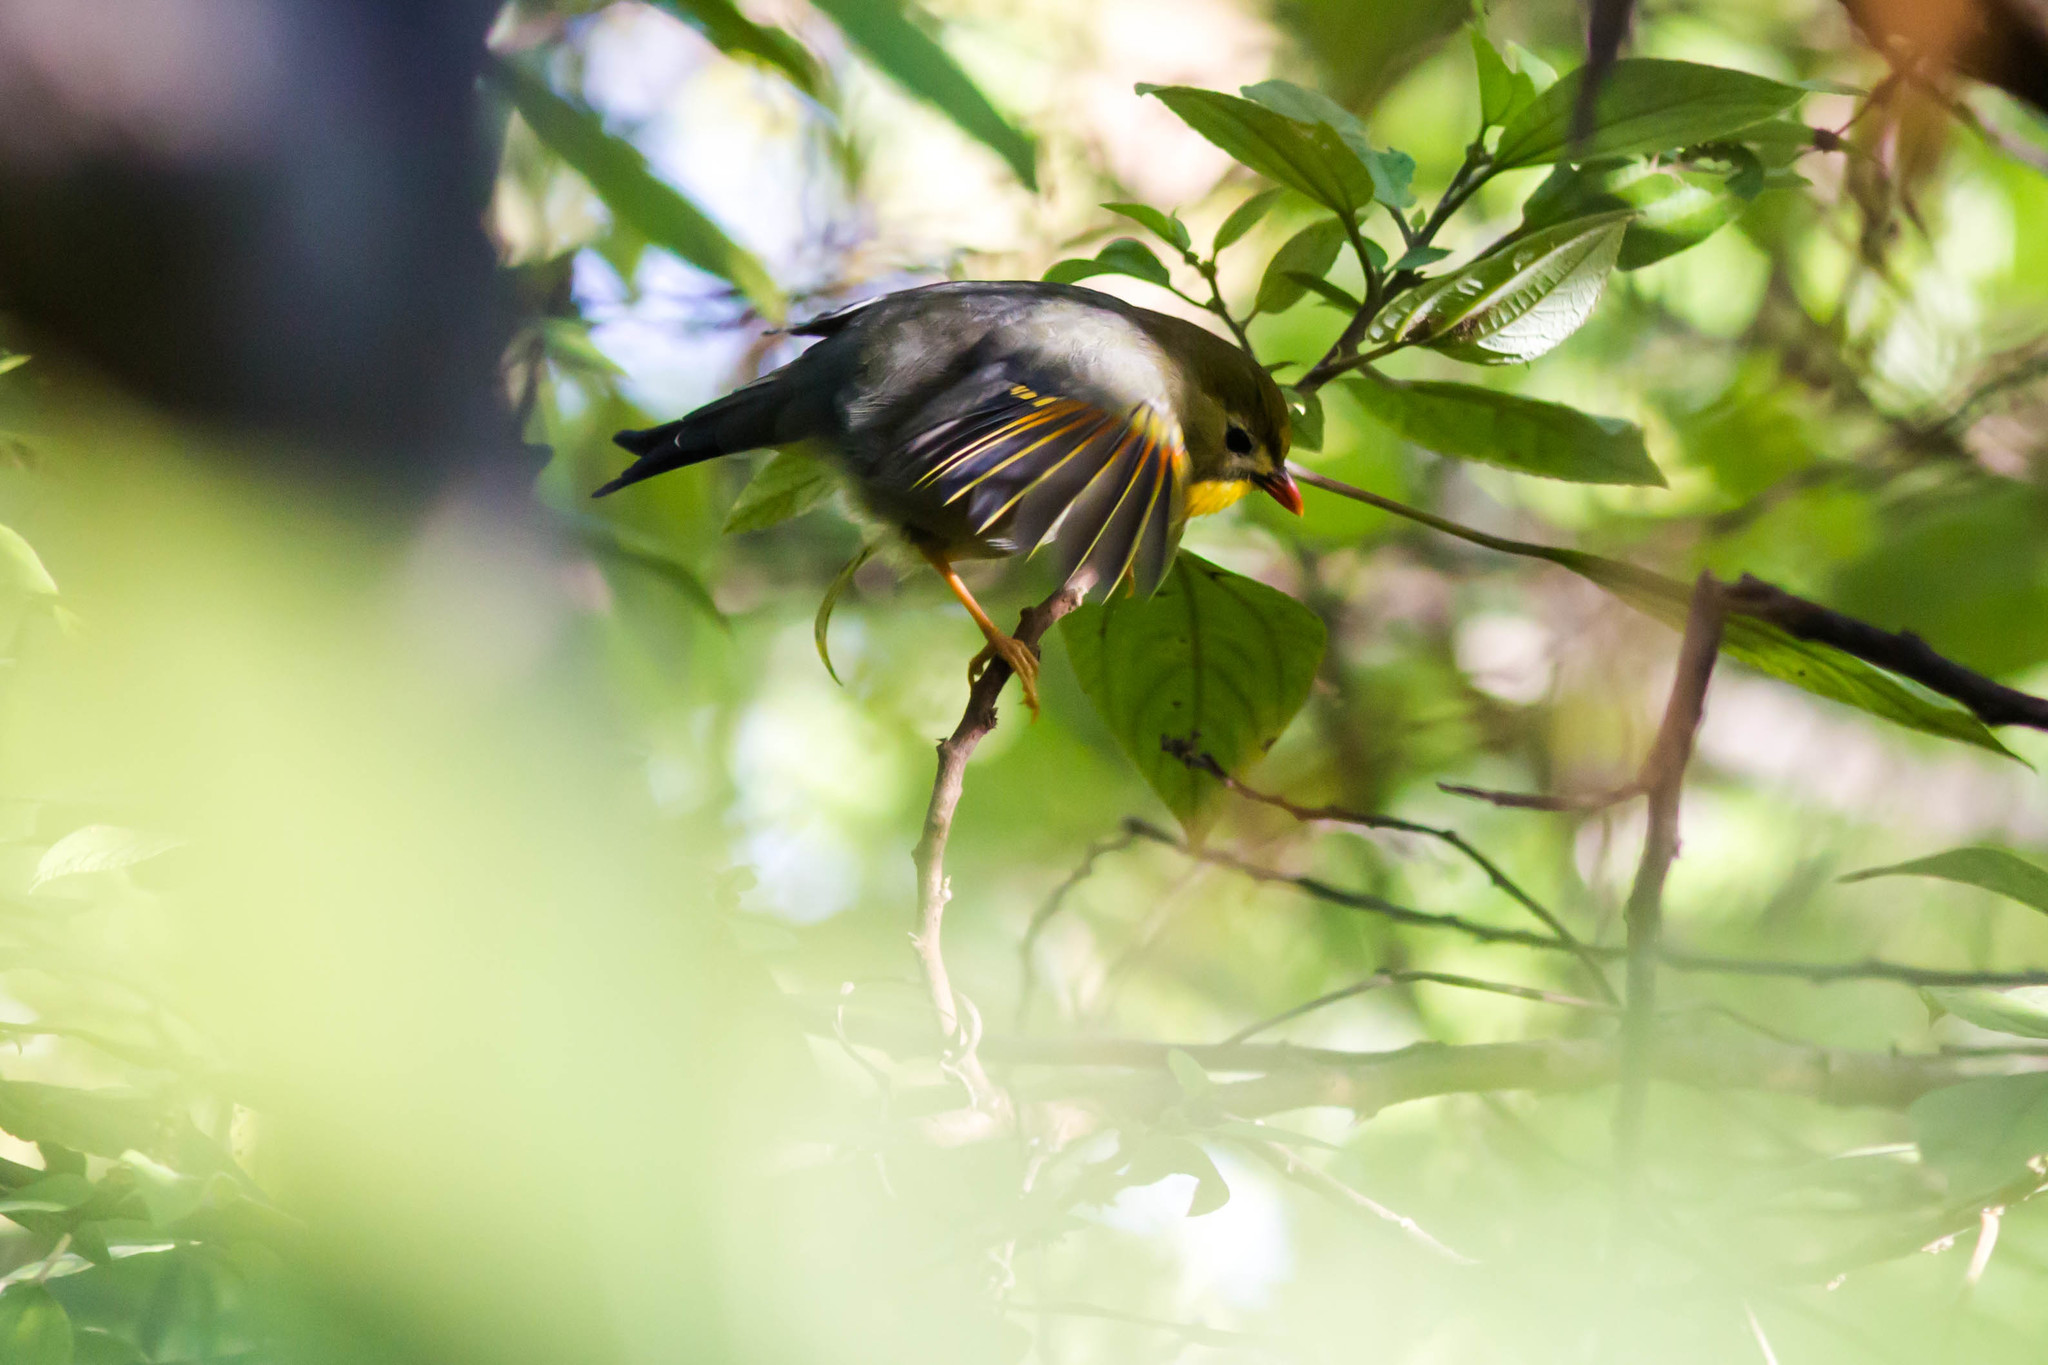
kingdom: Animalia
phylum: Chordata
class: Aves
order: Passeriformes
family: Leiothrichidae
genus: Leiothrix
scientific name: Leiothrix lutea
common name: Red-billed leiothrix
